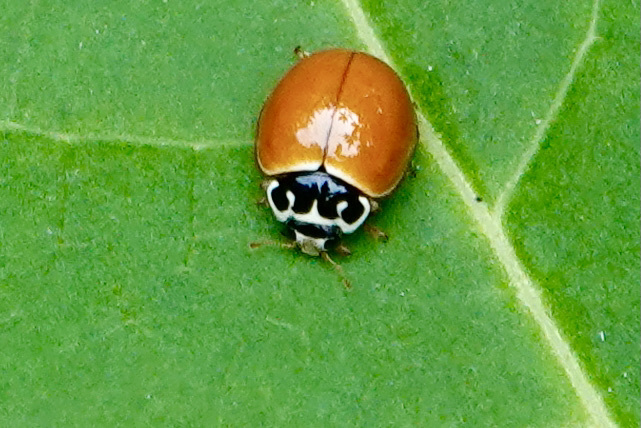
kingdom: Animalia
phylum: Arthropoda
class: Insecta
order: Coleoptera
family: Coccinellidae
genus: Cycloneda
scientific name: Cycloneda munda
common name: Polished lady beetle
